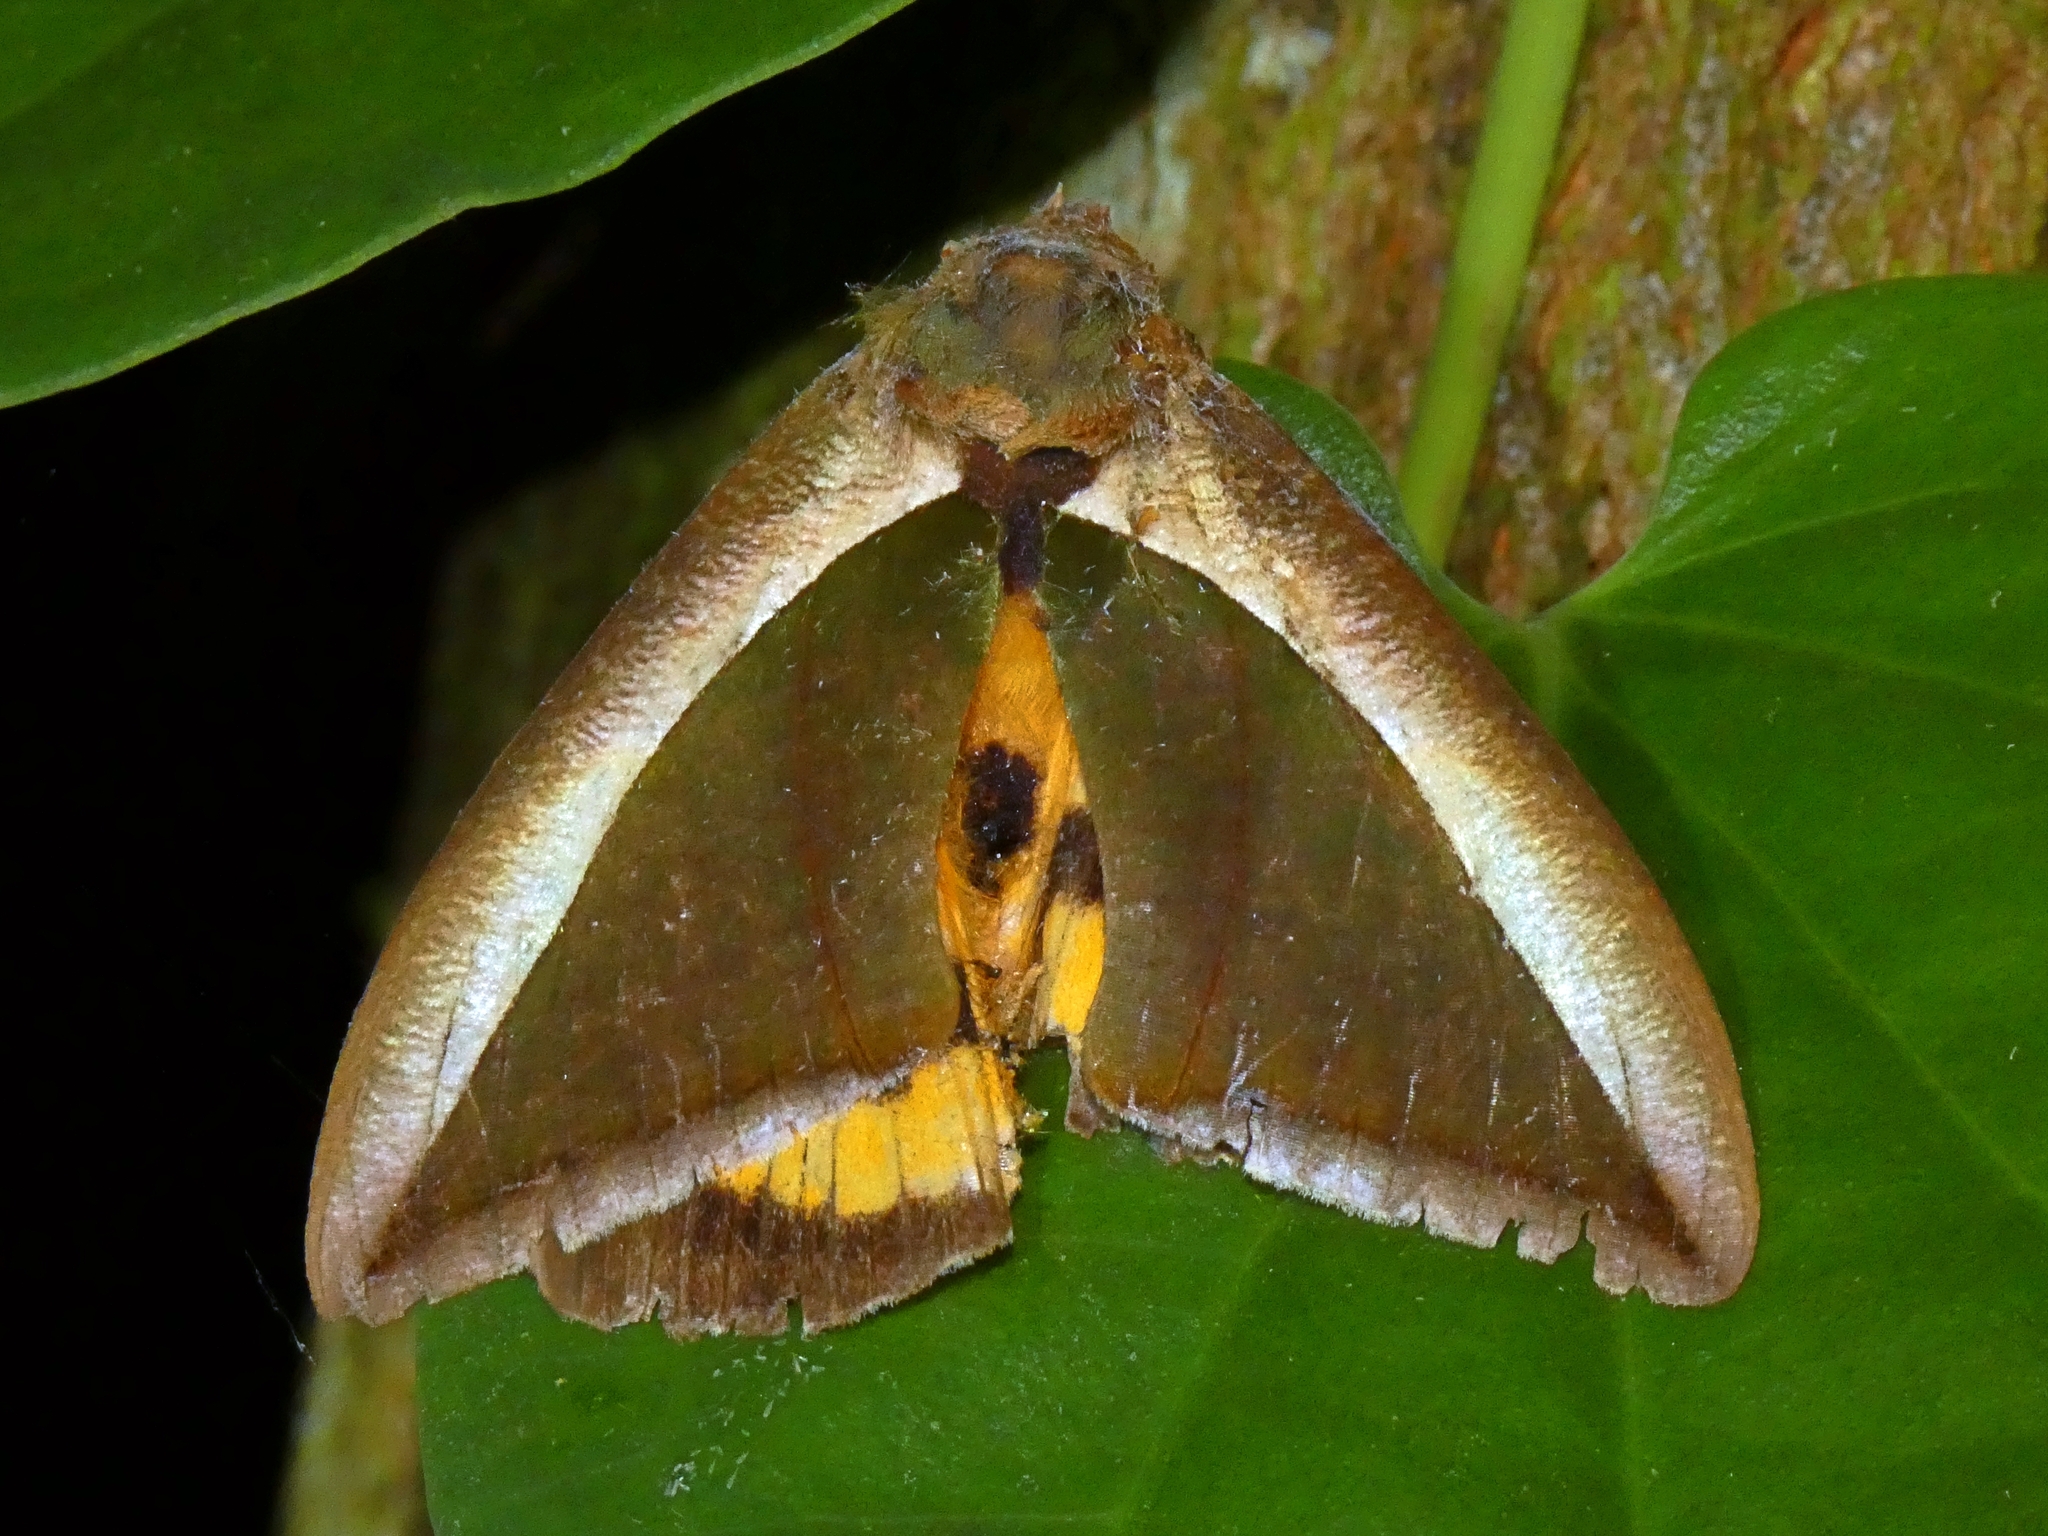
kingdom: Animalia
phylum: Arthropoda
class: Insecta
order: Lepidoptera
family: Erebidae
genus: Eudocima
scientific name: Eudocima salaminia
